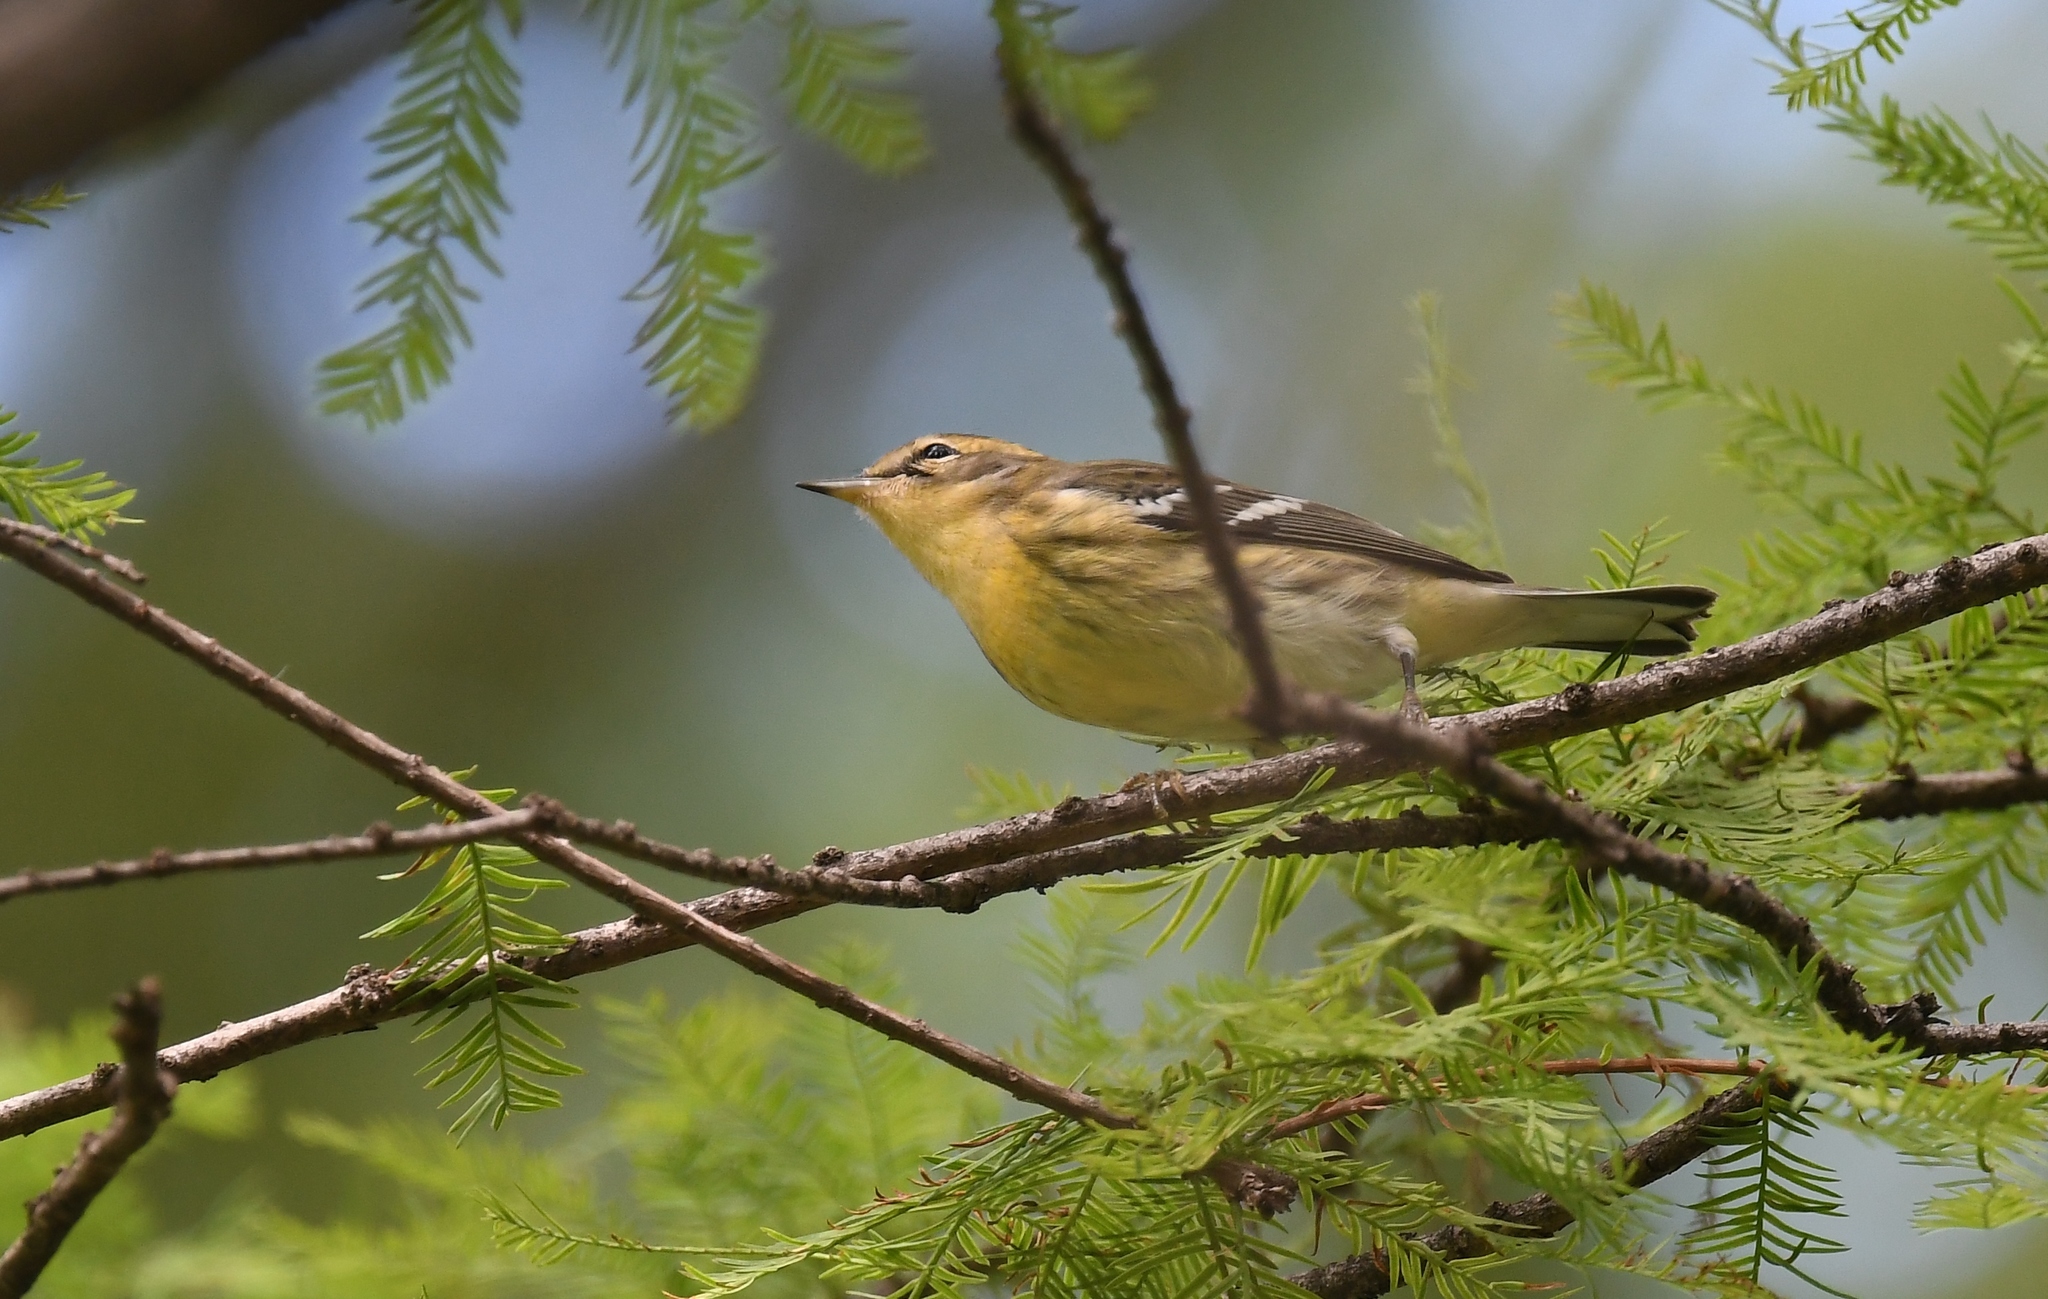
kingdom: Animalia
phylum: Chordata
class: Aves
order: Passeriformes
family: Parulidae
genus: Setophaga
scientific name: Setophaga fusca
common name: Blackburnian warbler
